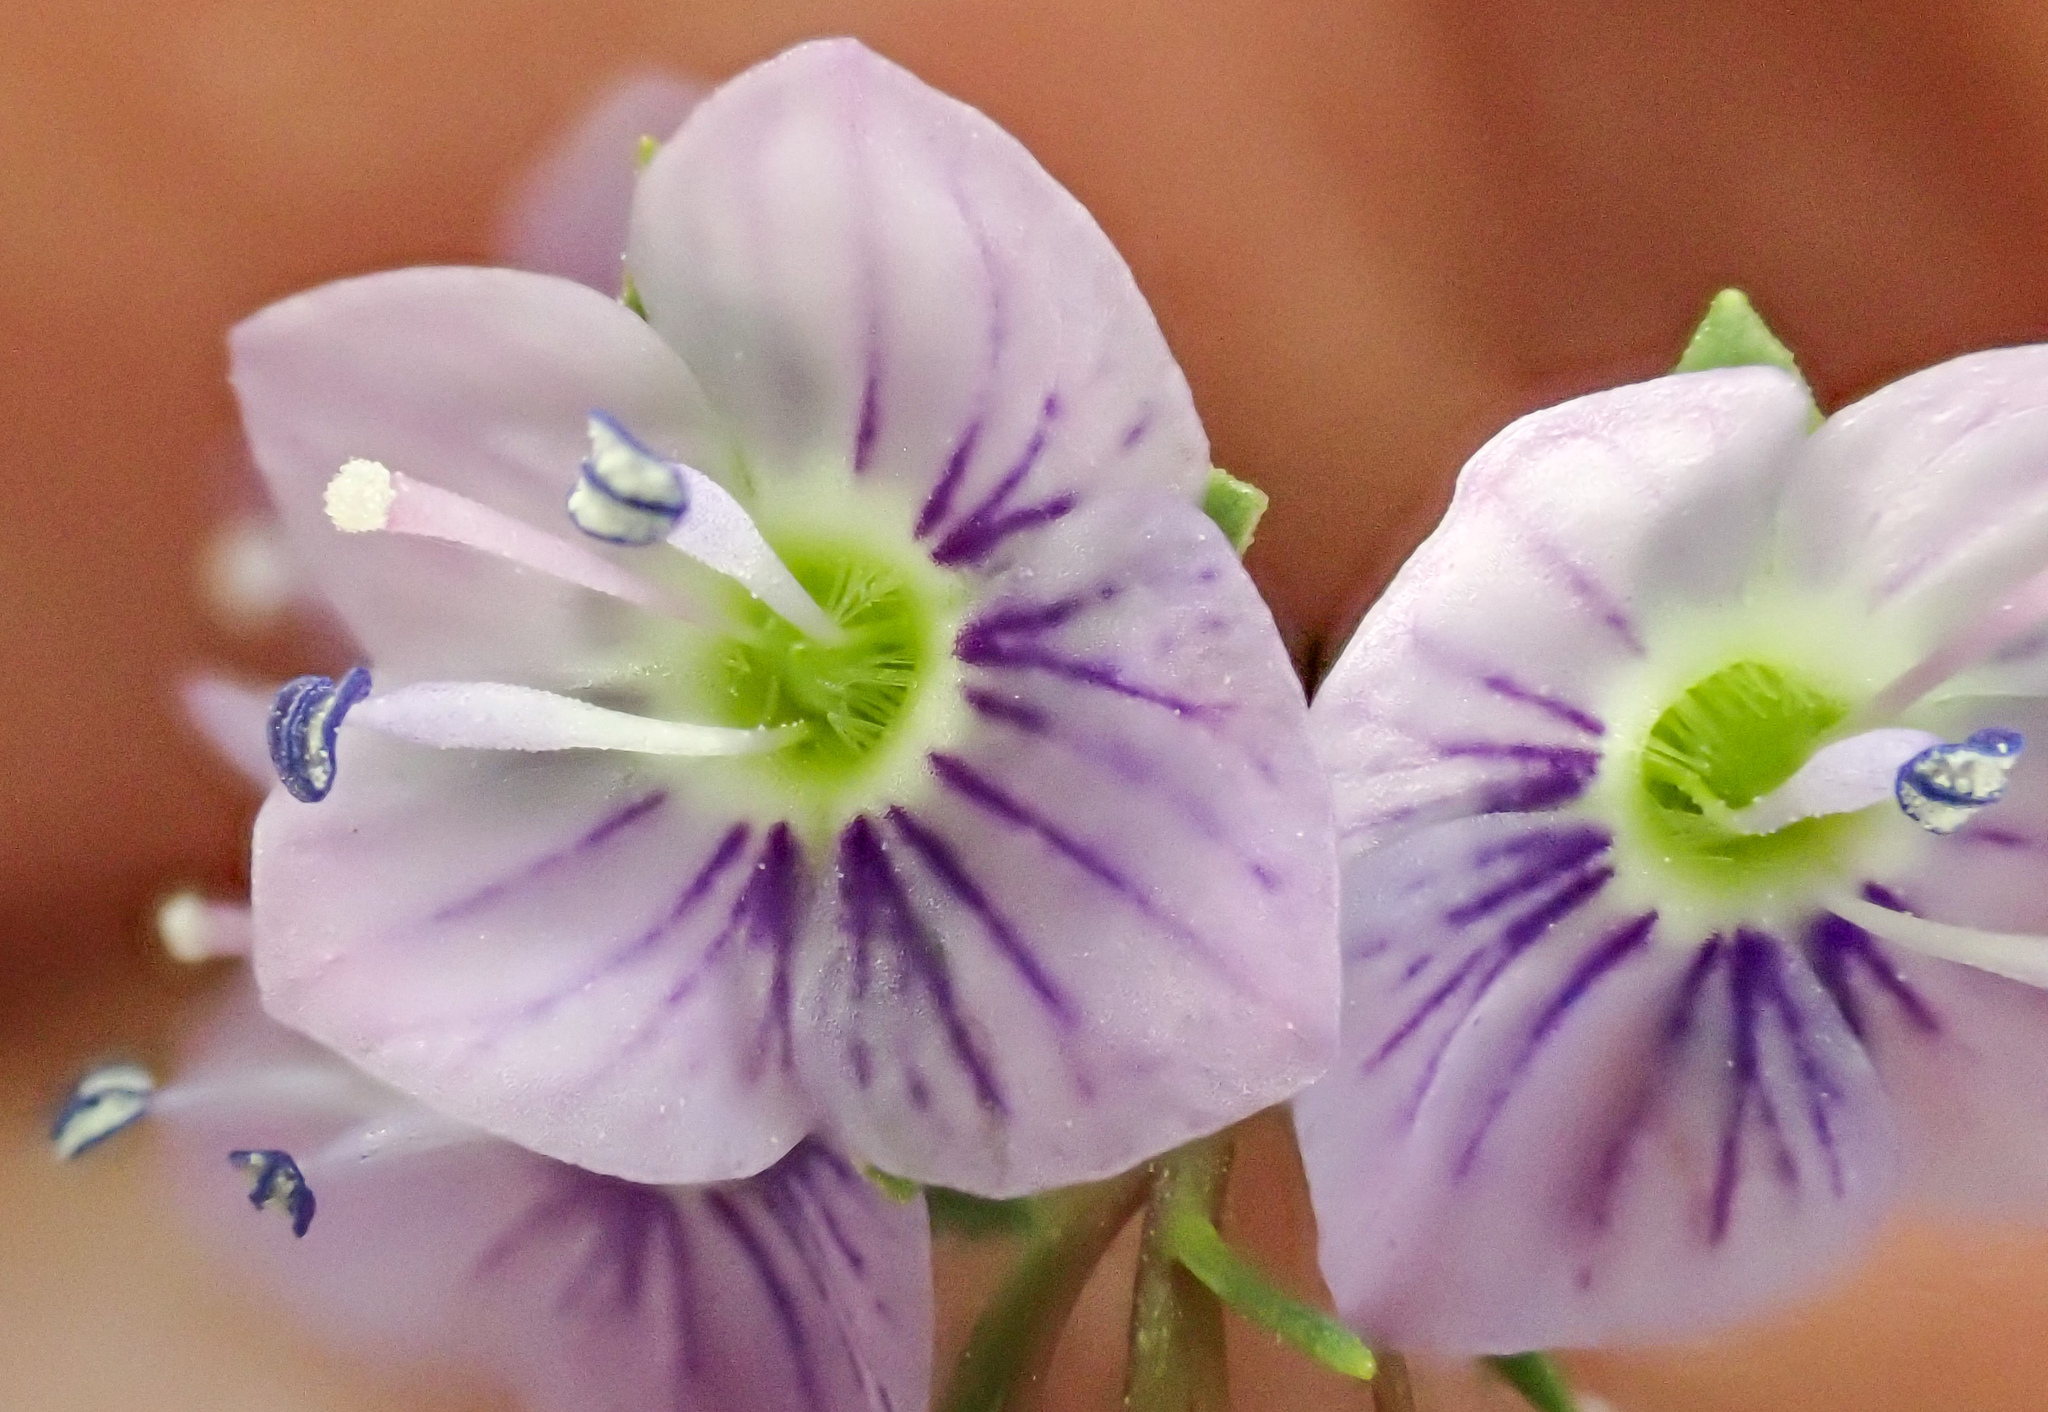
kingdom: Plantae
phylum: Tracheophyta
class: Magnoliopsida
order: Lamiales
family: Plantaginaceae
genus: Veronica
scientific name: Veronica anagallis-aquatica
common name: Water speedwell
